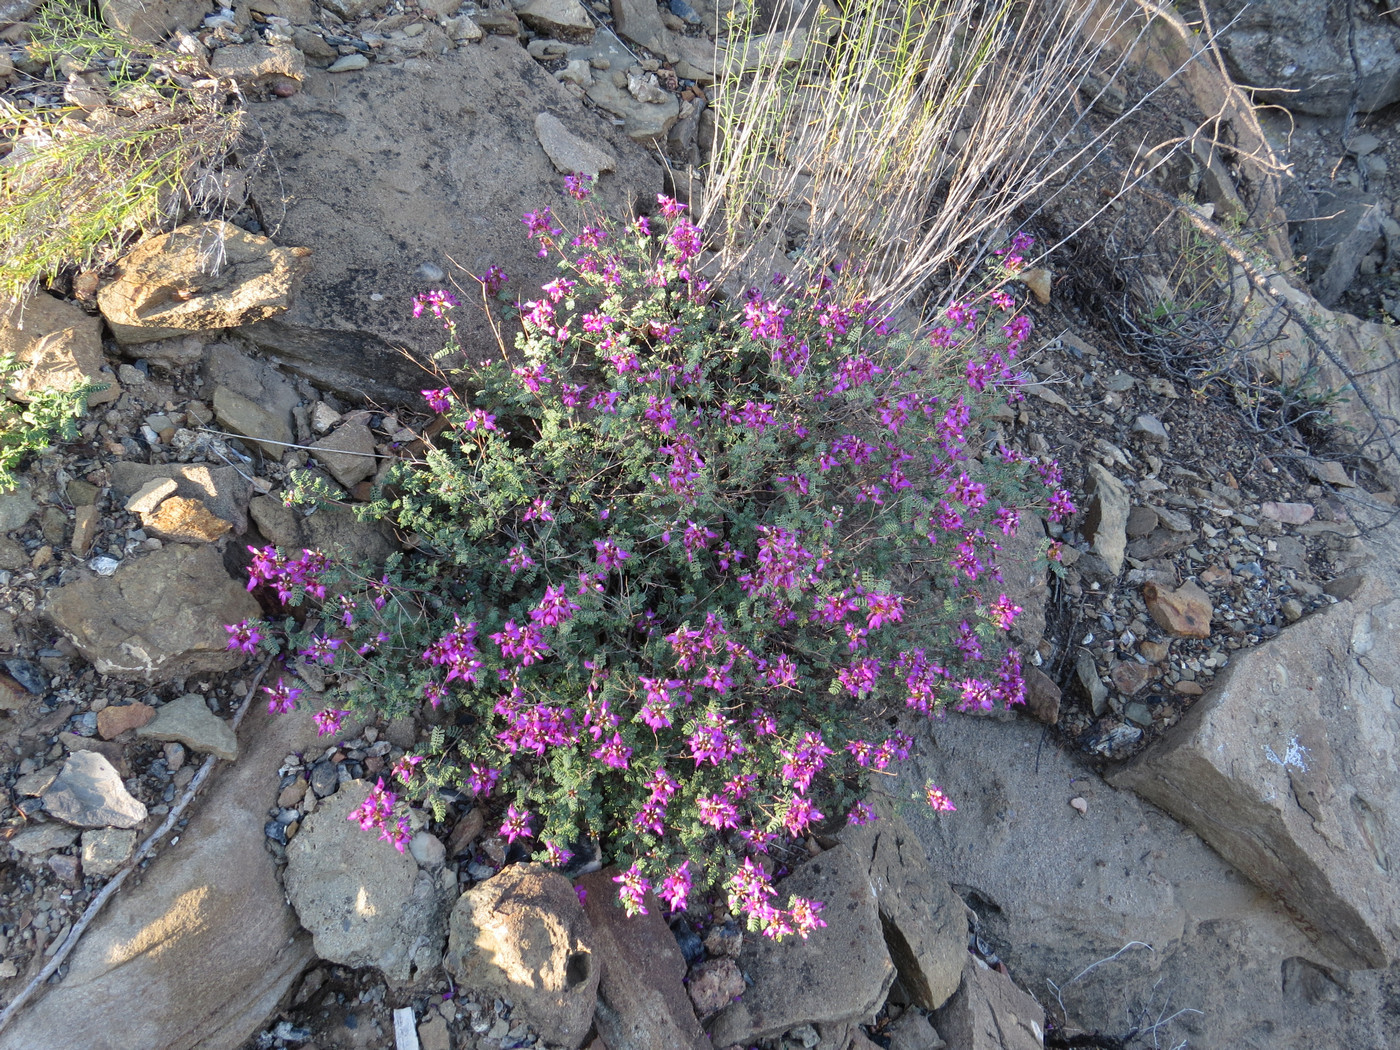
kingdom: Plantae
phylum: Tracheophyta
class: Magnoliopsida
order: Fabales
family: Fabaceae
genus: Dalea
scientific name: Dalea frutescens
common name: Black dalea
